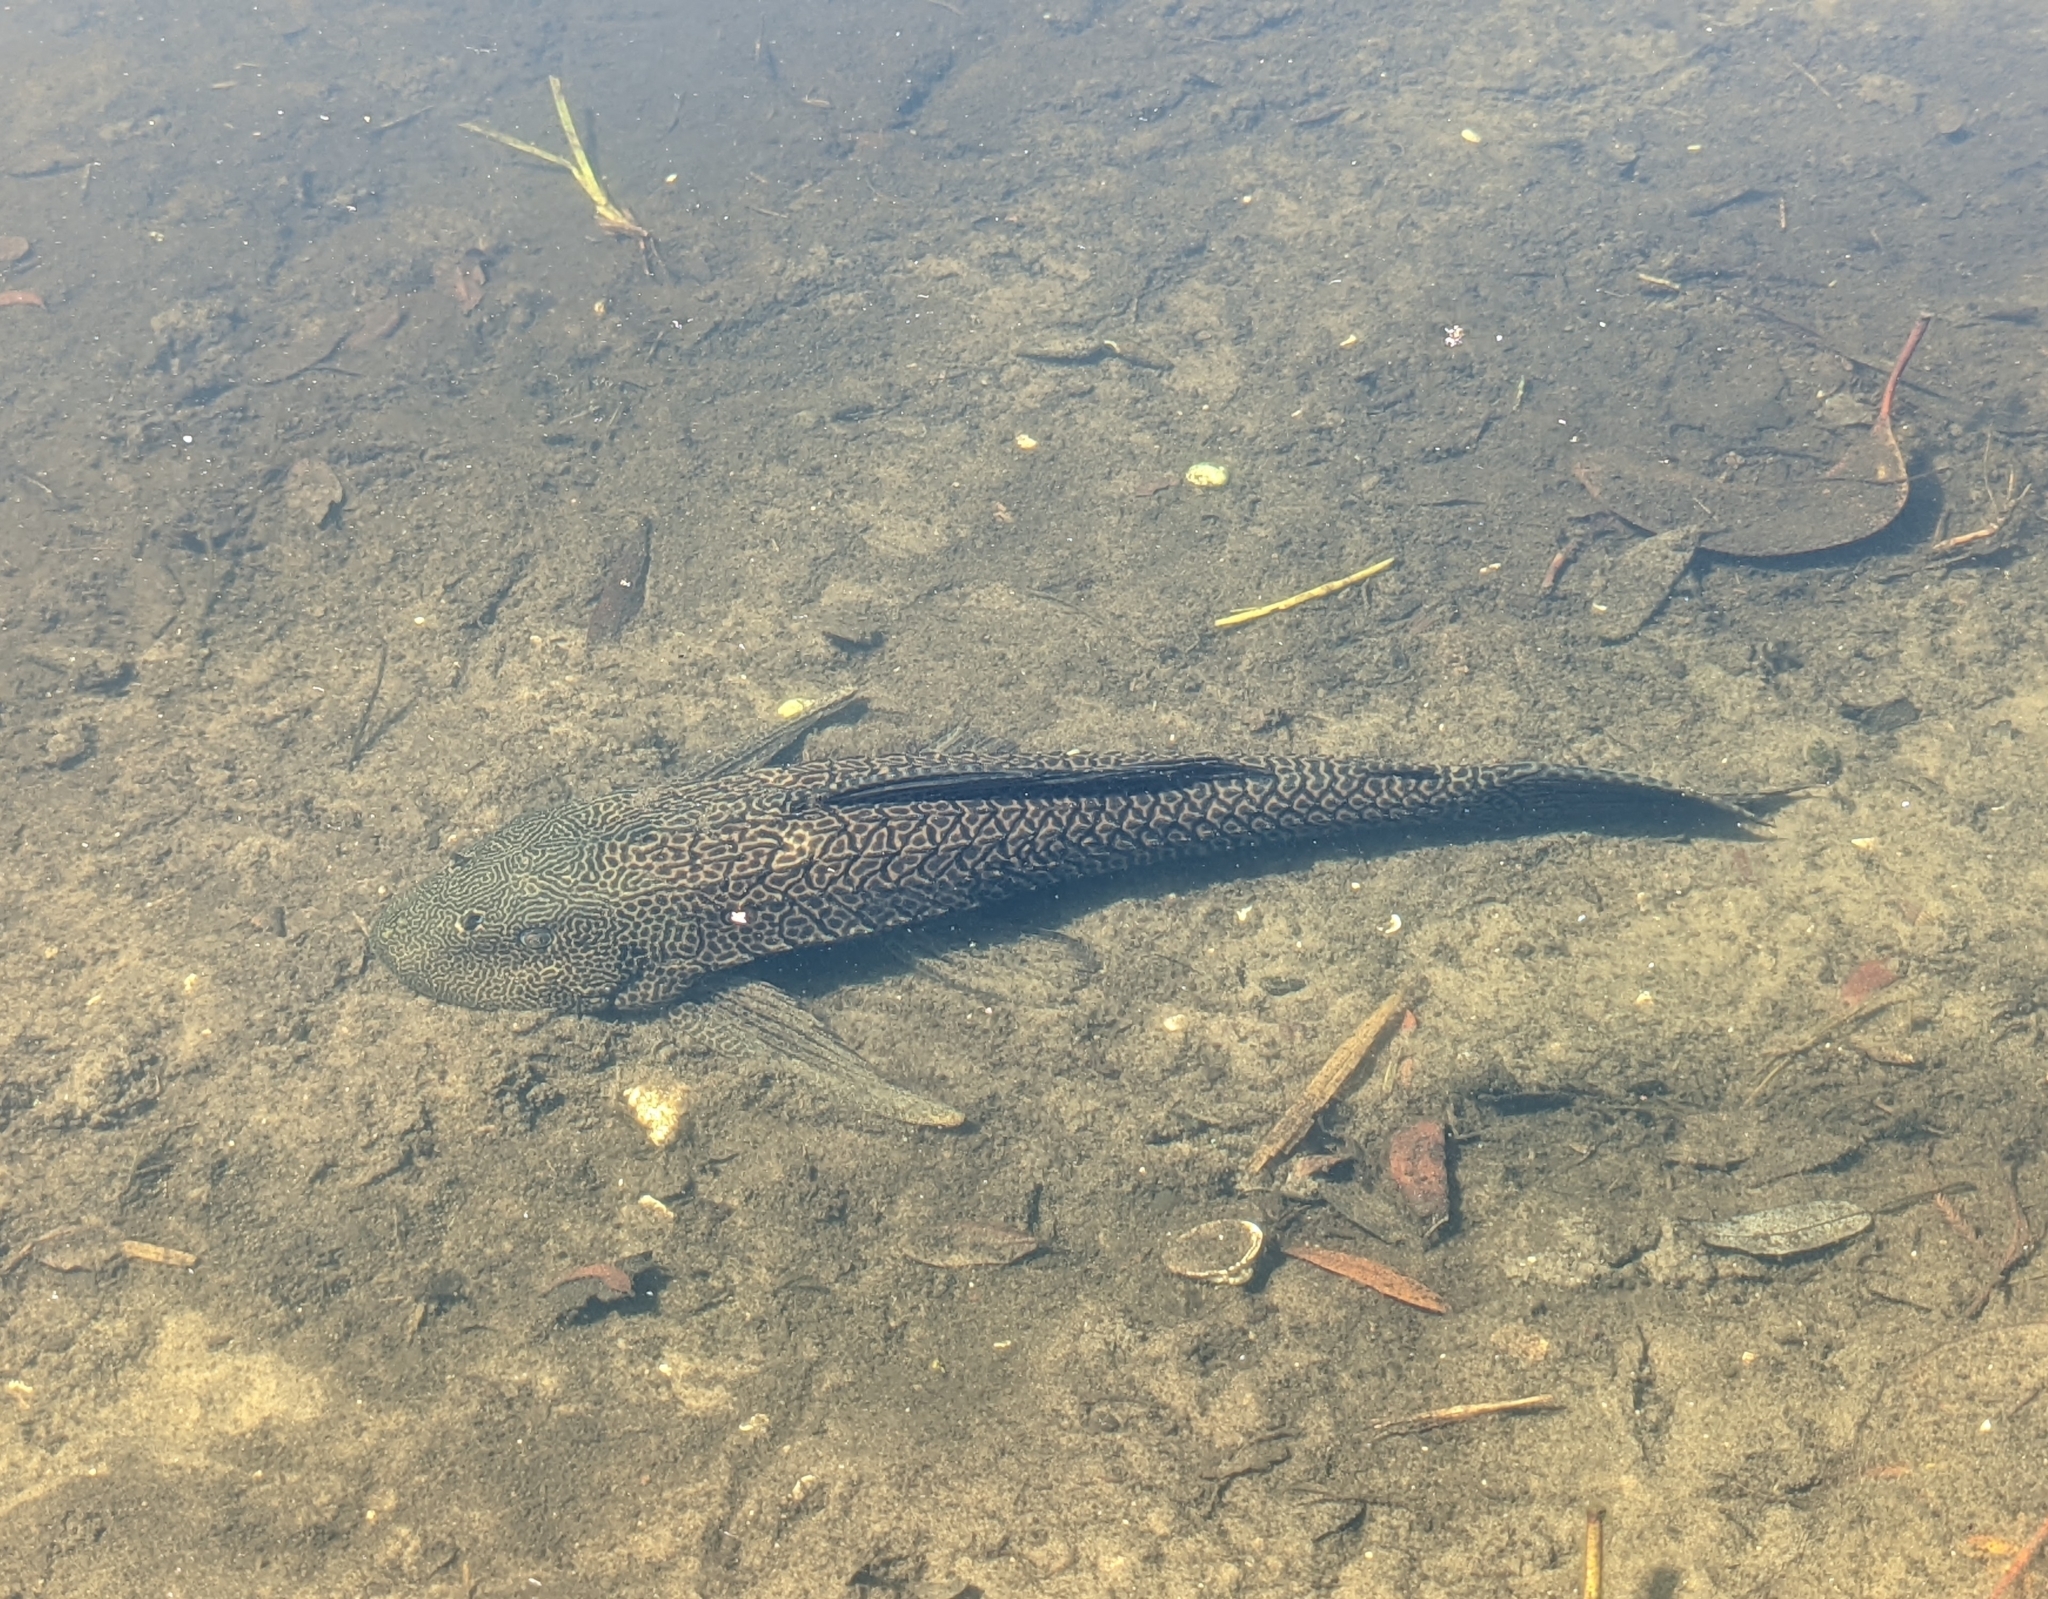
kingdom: Animalia
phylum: Chordata
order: Siluriformes
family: Loricariidae
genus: Pterygoplichthys
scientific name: Pterygoplichthys
